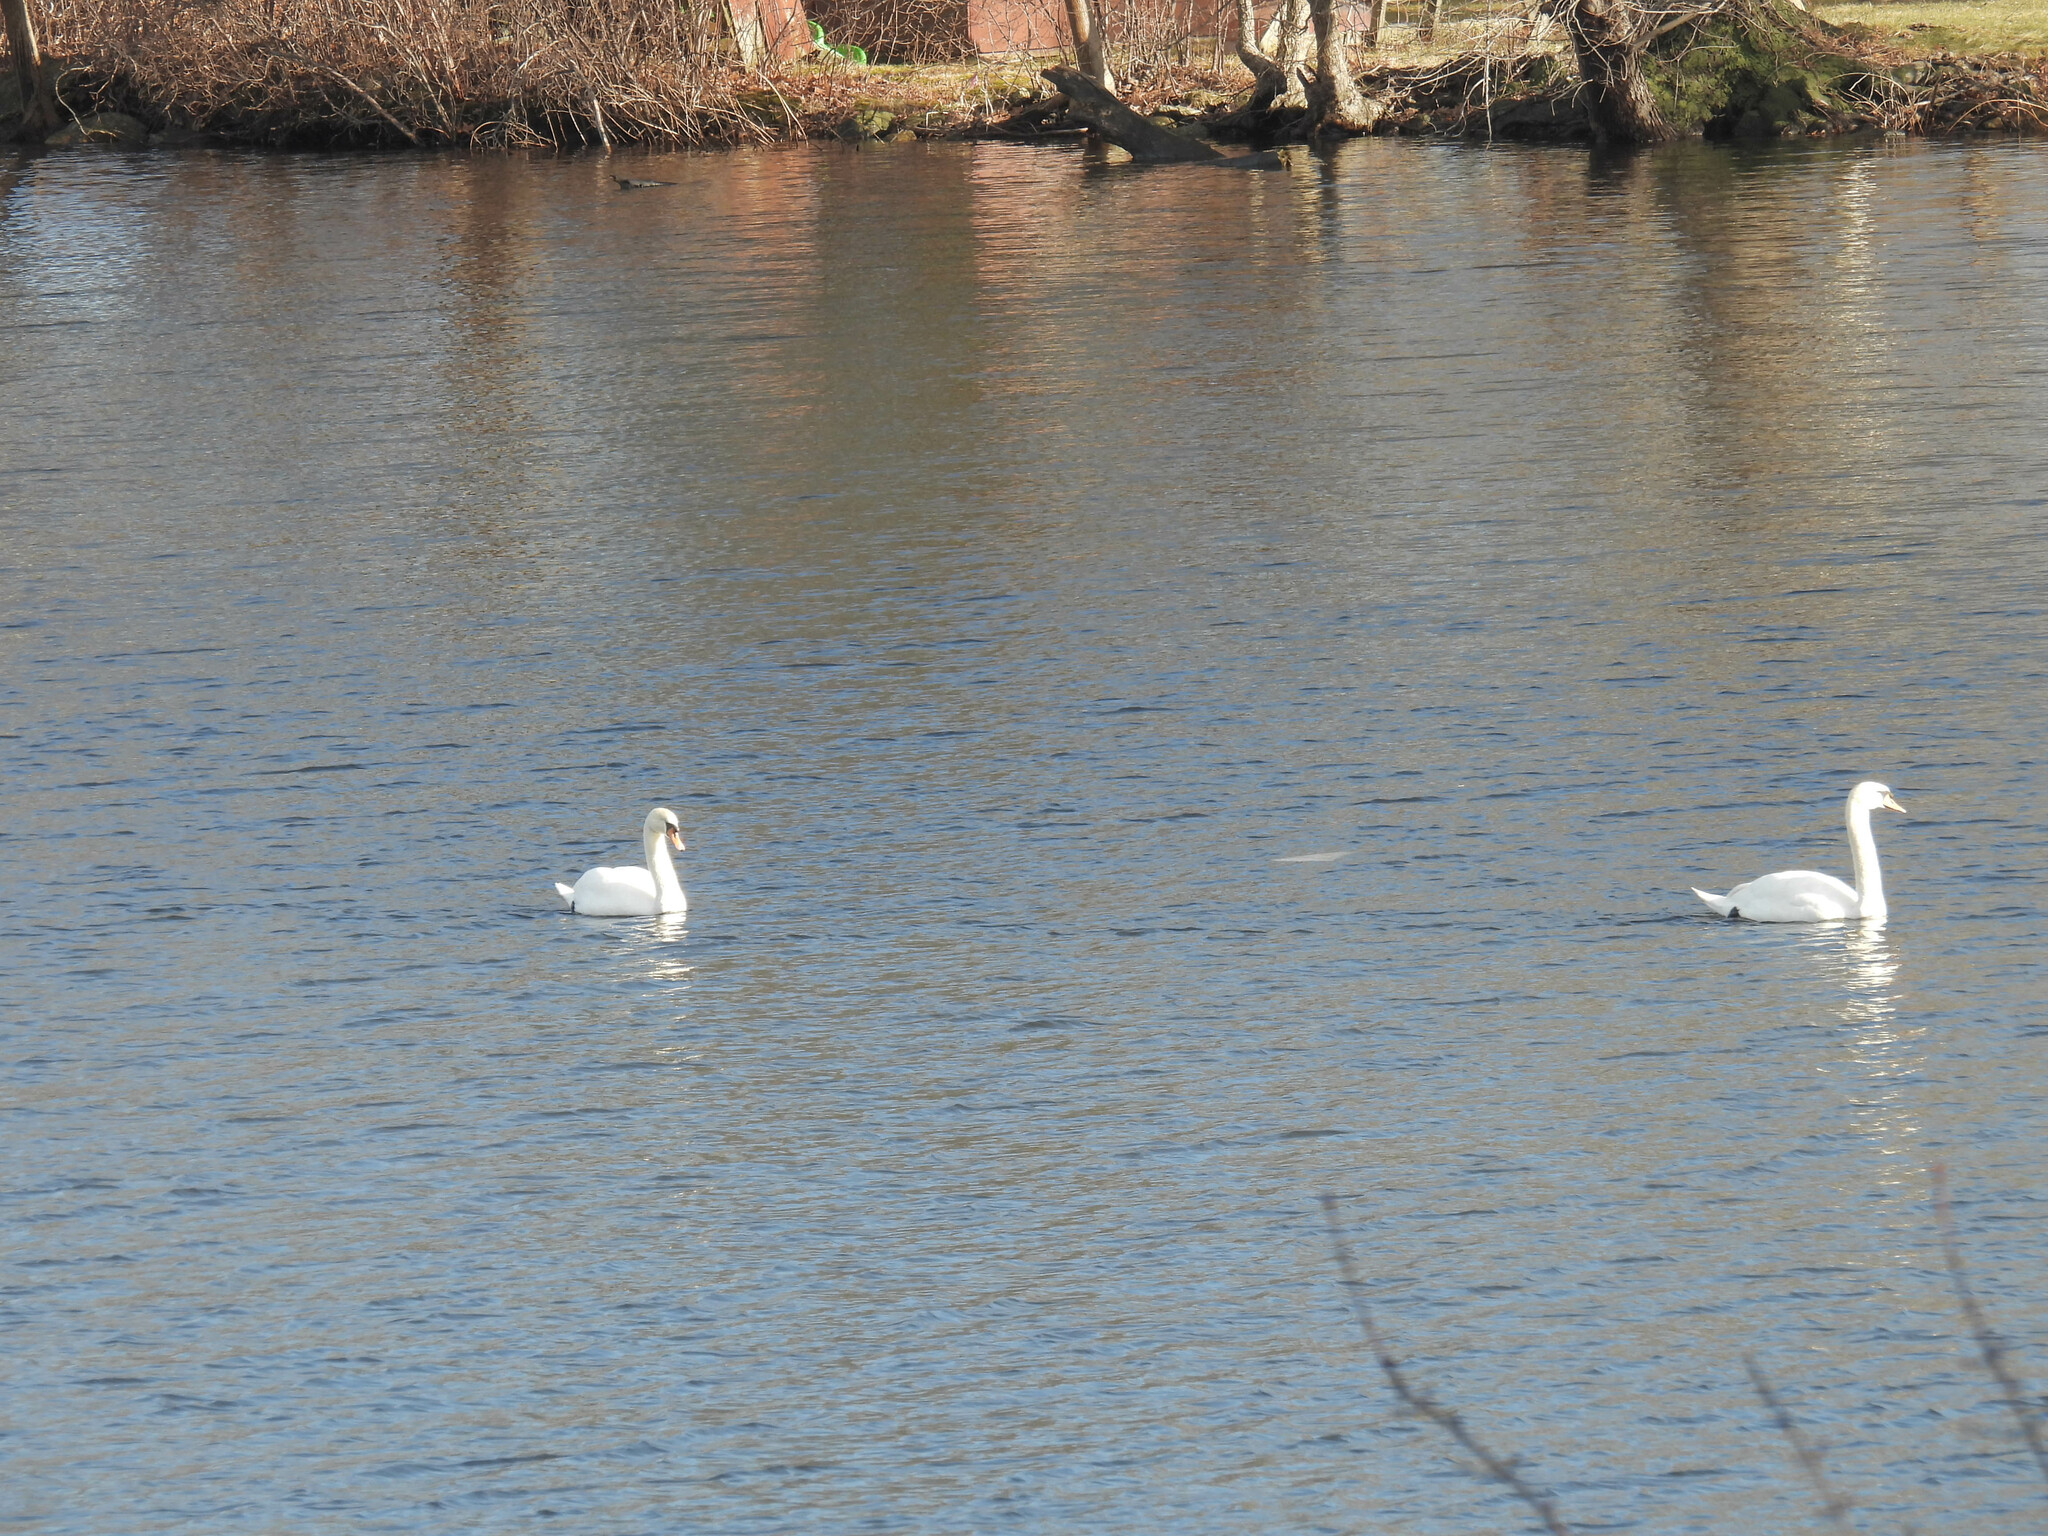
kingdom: Animalia
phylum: Chordata
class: Aves
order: Anseriformes
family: Anatidae
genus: Cygnus
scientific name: Cygnus olor
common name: Mute swan
